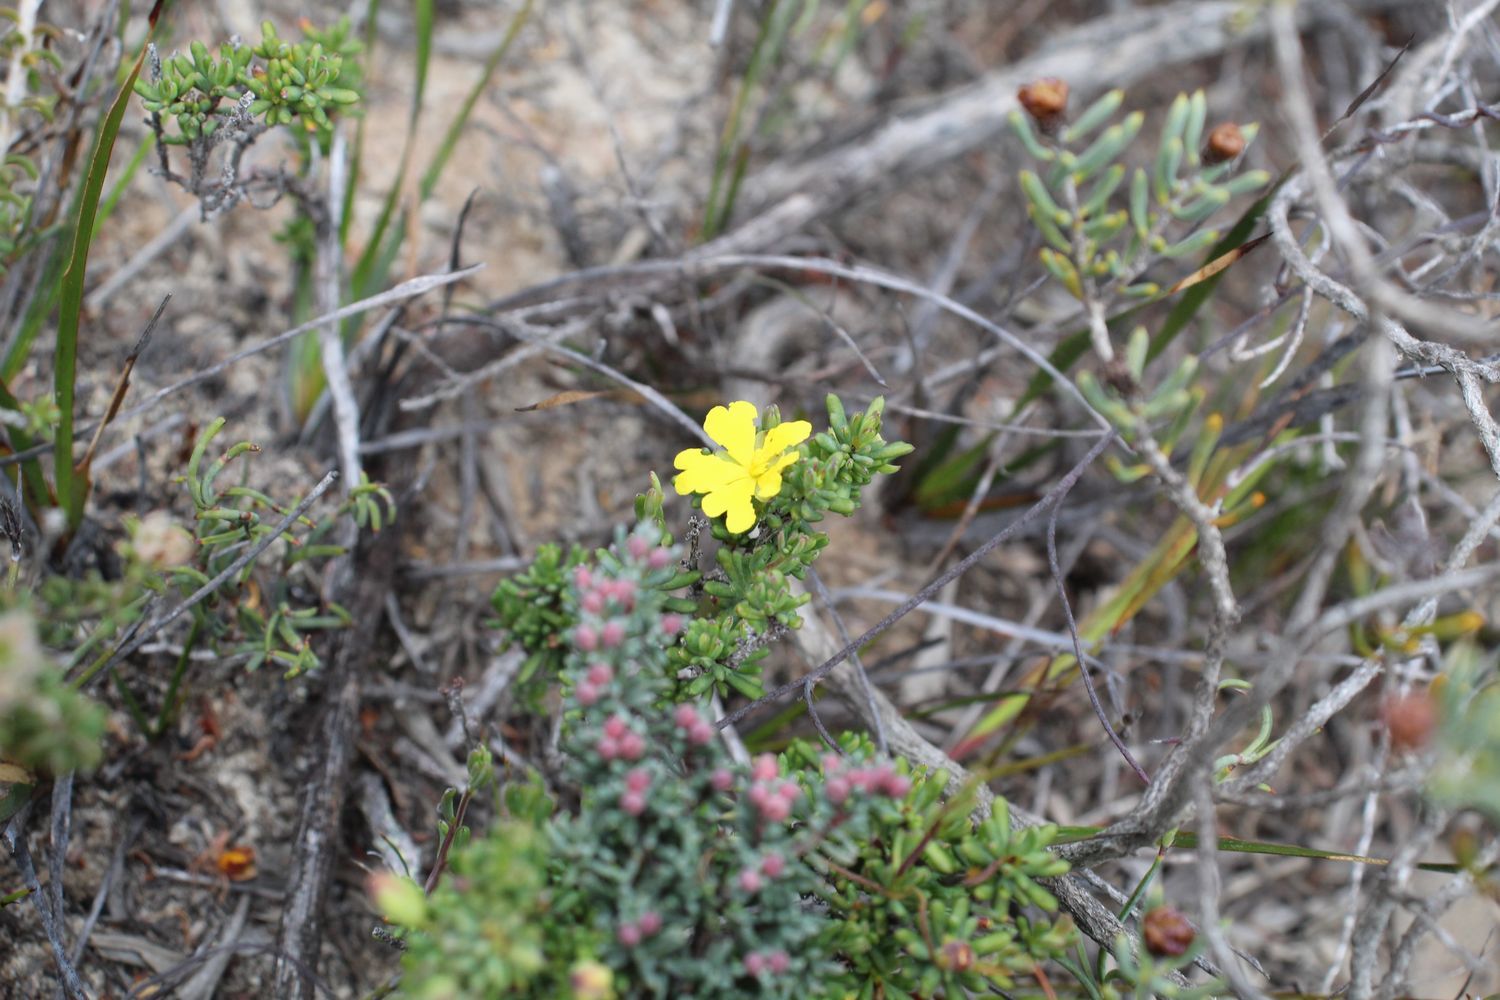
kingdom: Plantae
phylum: Tracheophyta
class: Magnoliopsida
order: Dilleniales
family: Dilleniaceae
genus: Hibbertia
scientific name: Hibbertia gracilipes
